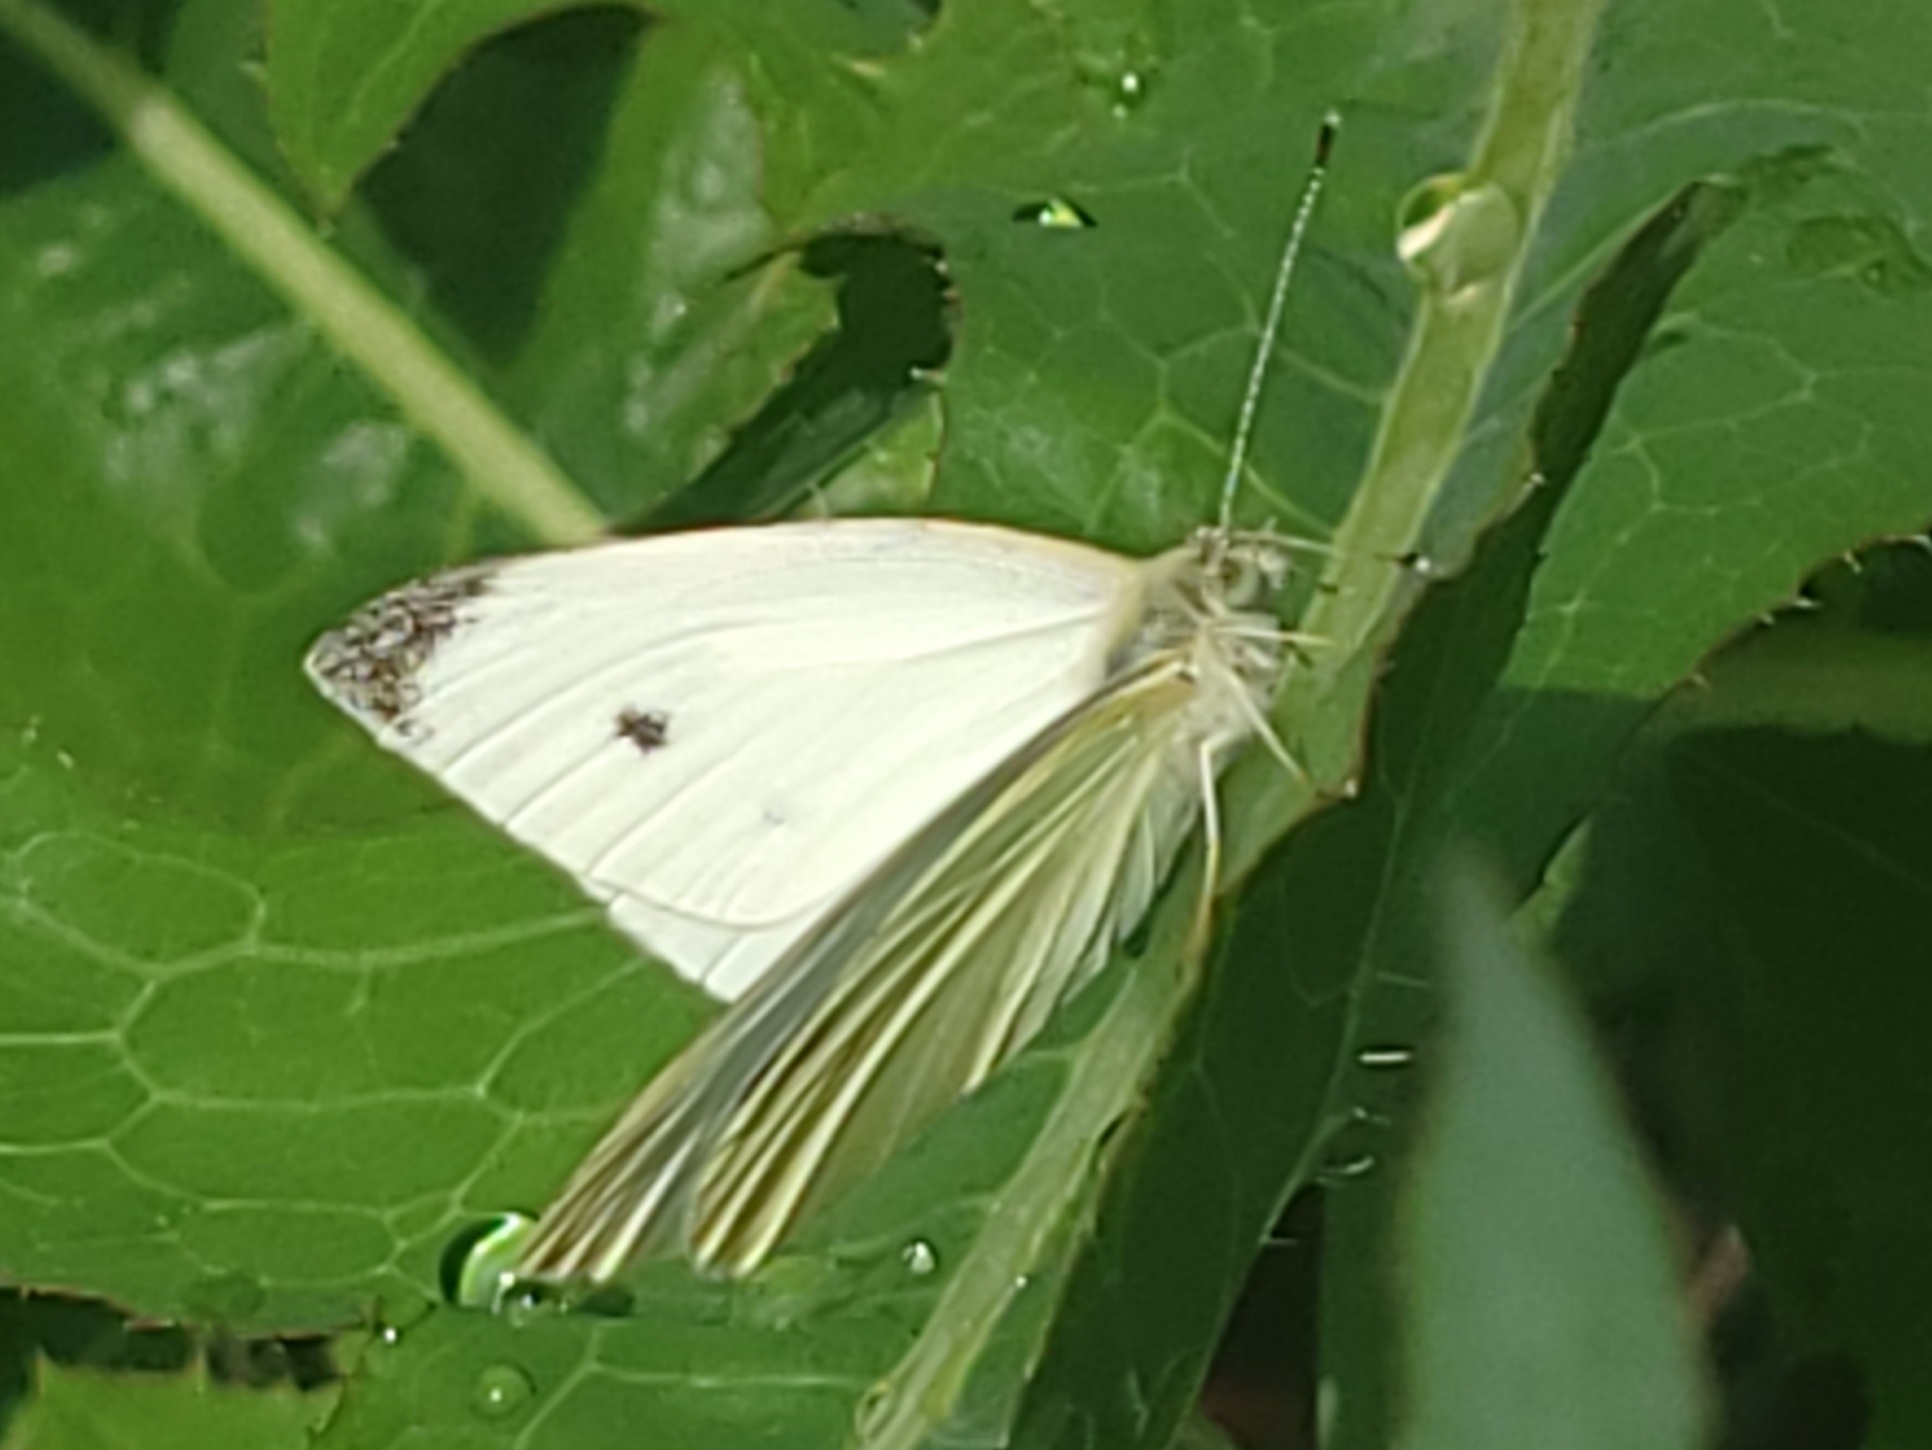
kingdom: Animalia
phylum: Arthropoda
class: Insecta
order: Lepidoptera
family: Pieridae
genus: Pieris
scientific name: Pieris rapae
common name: Small white
